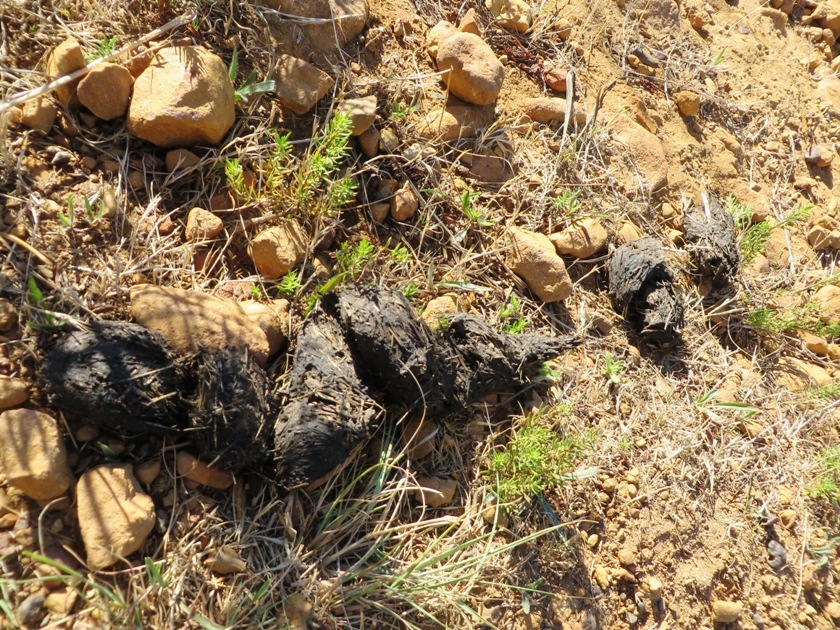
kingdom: Animalia
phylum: Chordata
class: Testudines
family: Testudinidae
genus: Stigmochelys
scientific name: Stigmochelys pardalis
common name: Leopard tortoise
